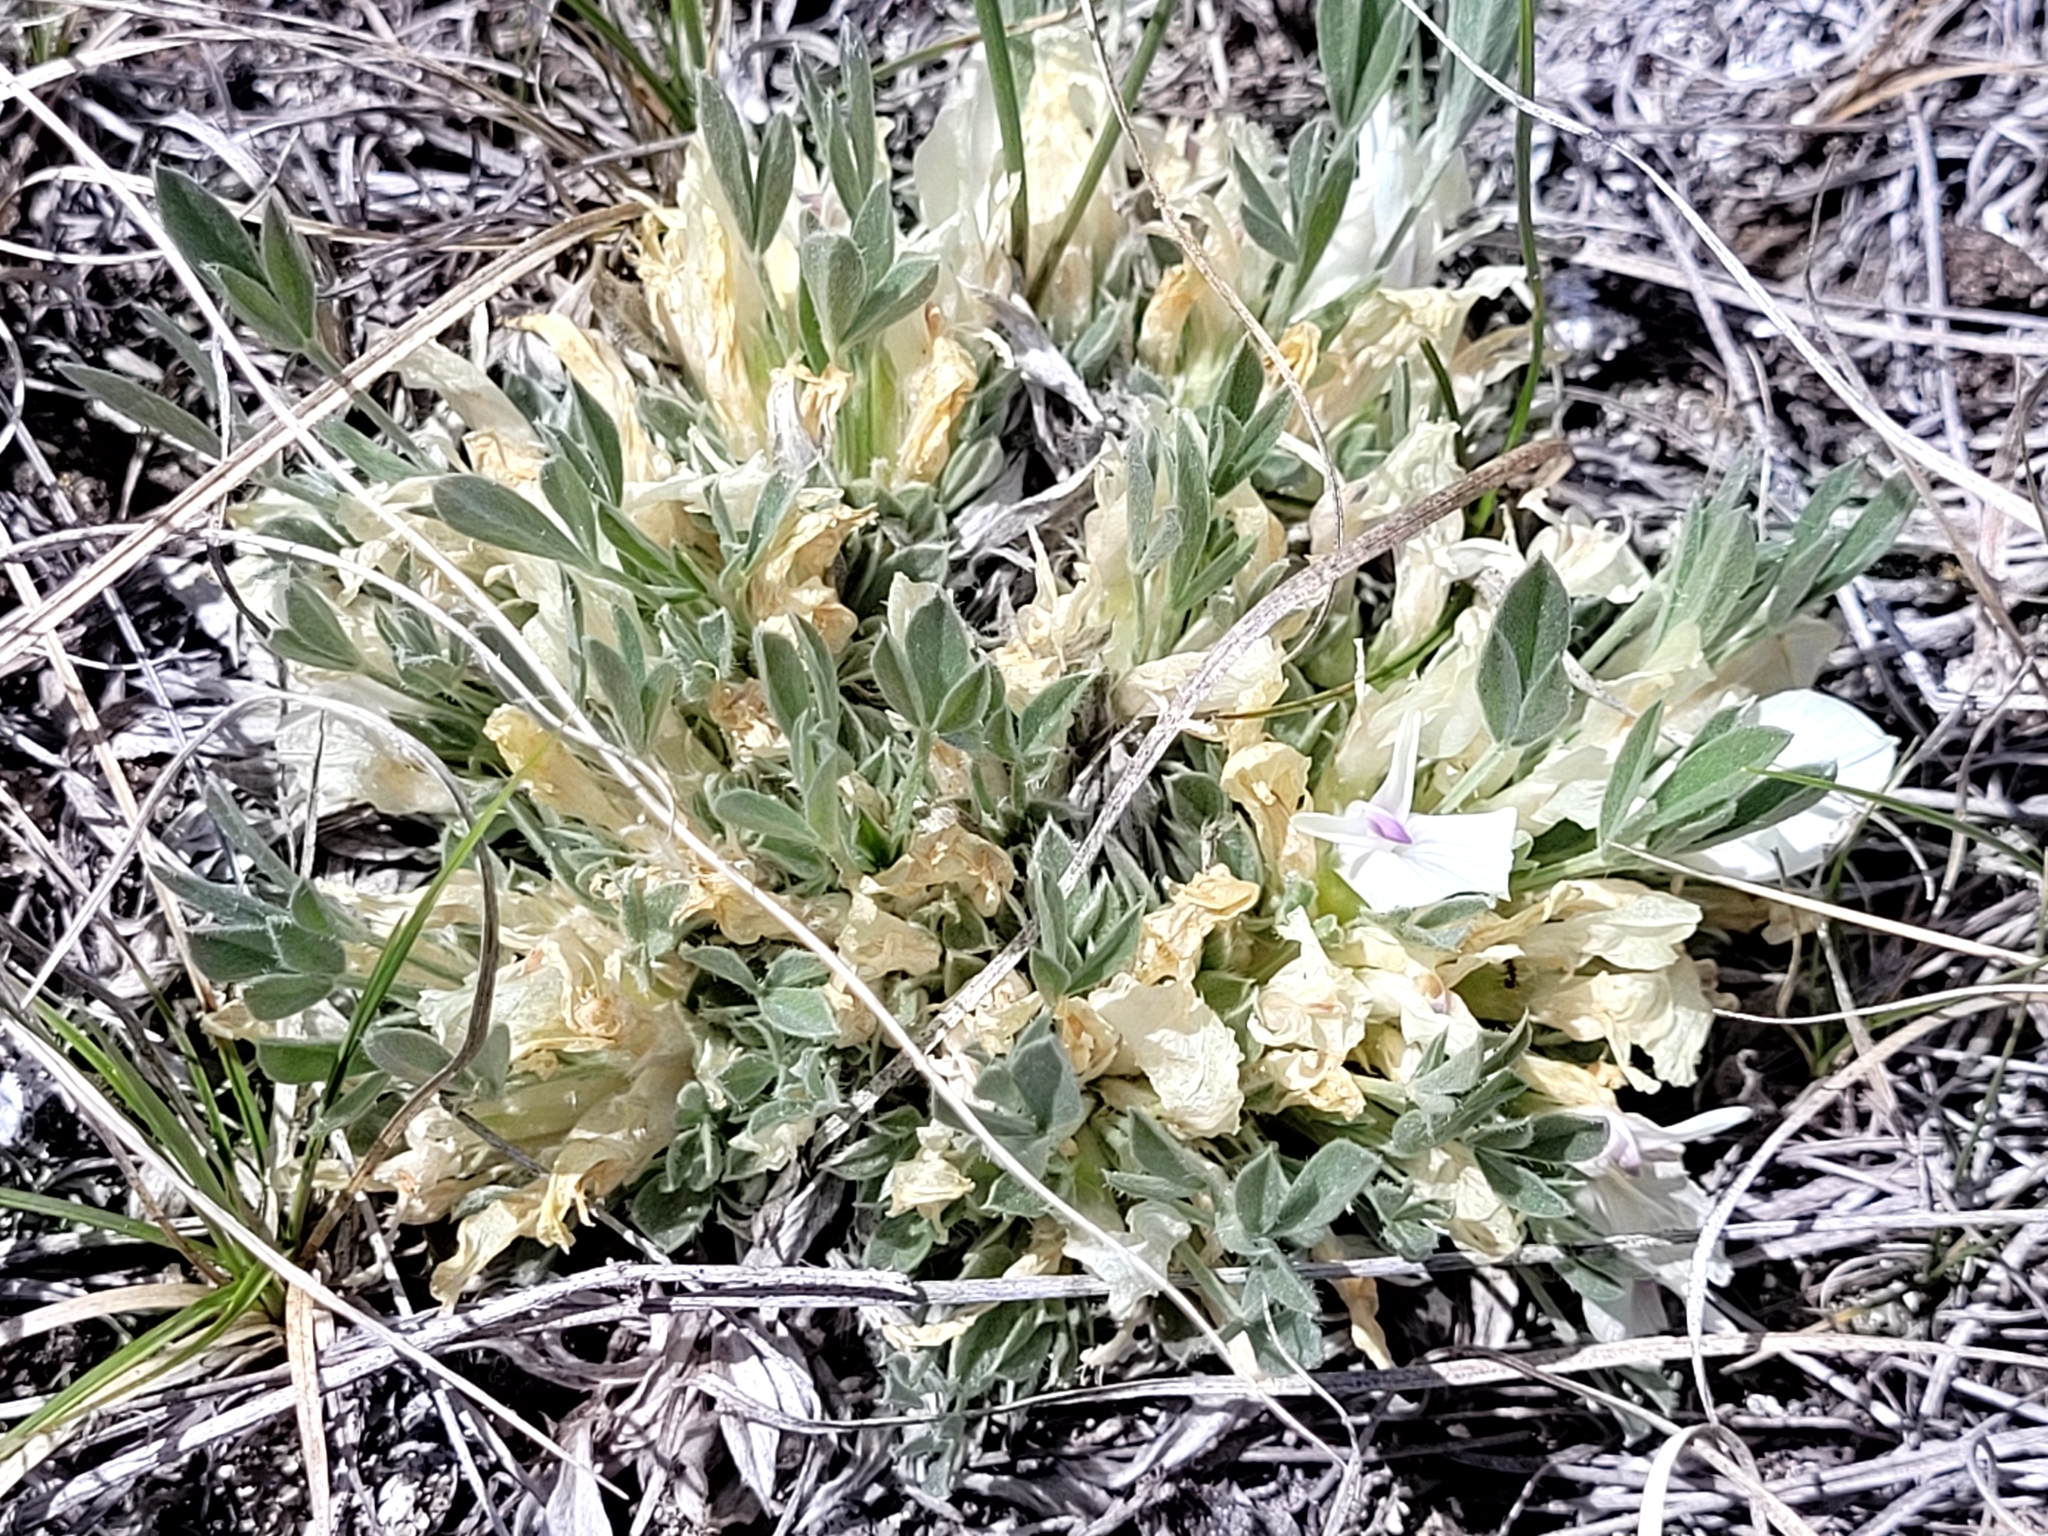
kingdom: Plantae
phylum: Tracheophyta
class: Magnoliopsida
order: Fabales
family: Fabaceae
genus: Astragalus
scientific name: Astragalus gilviflorus
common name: Cushion milk-vetch
